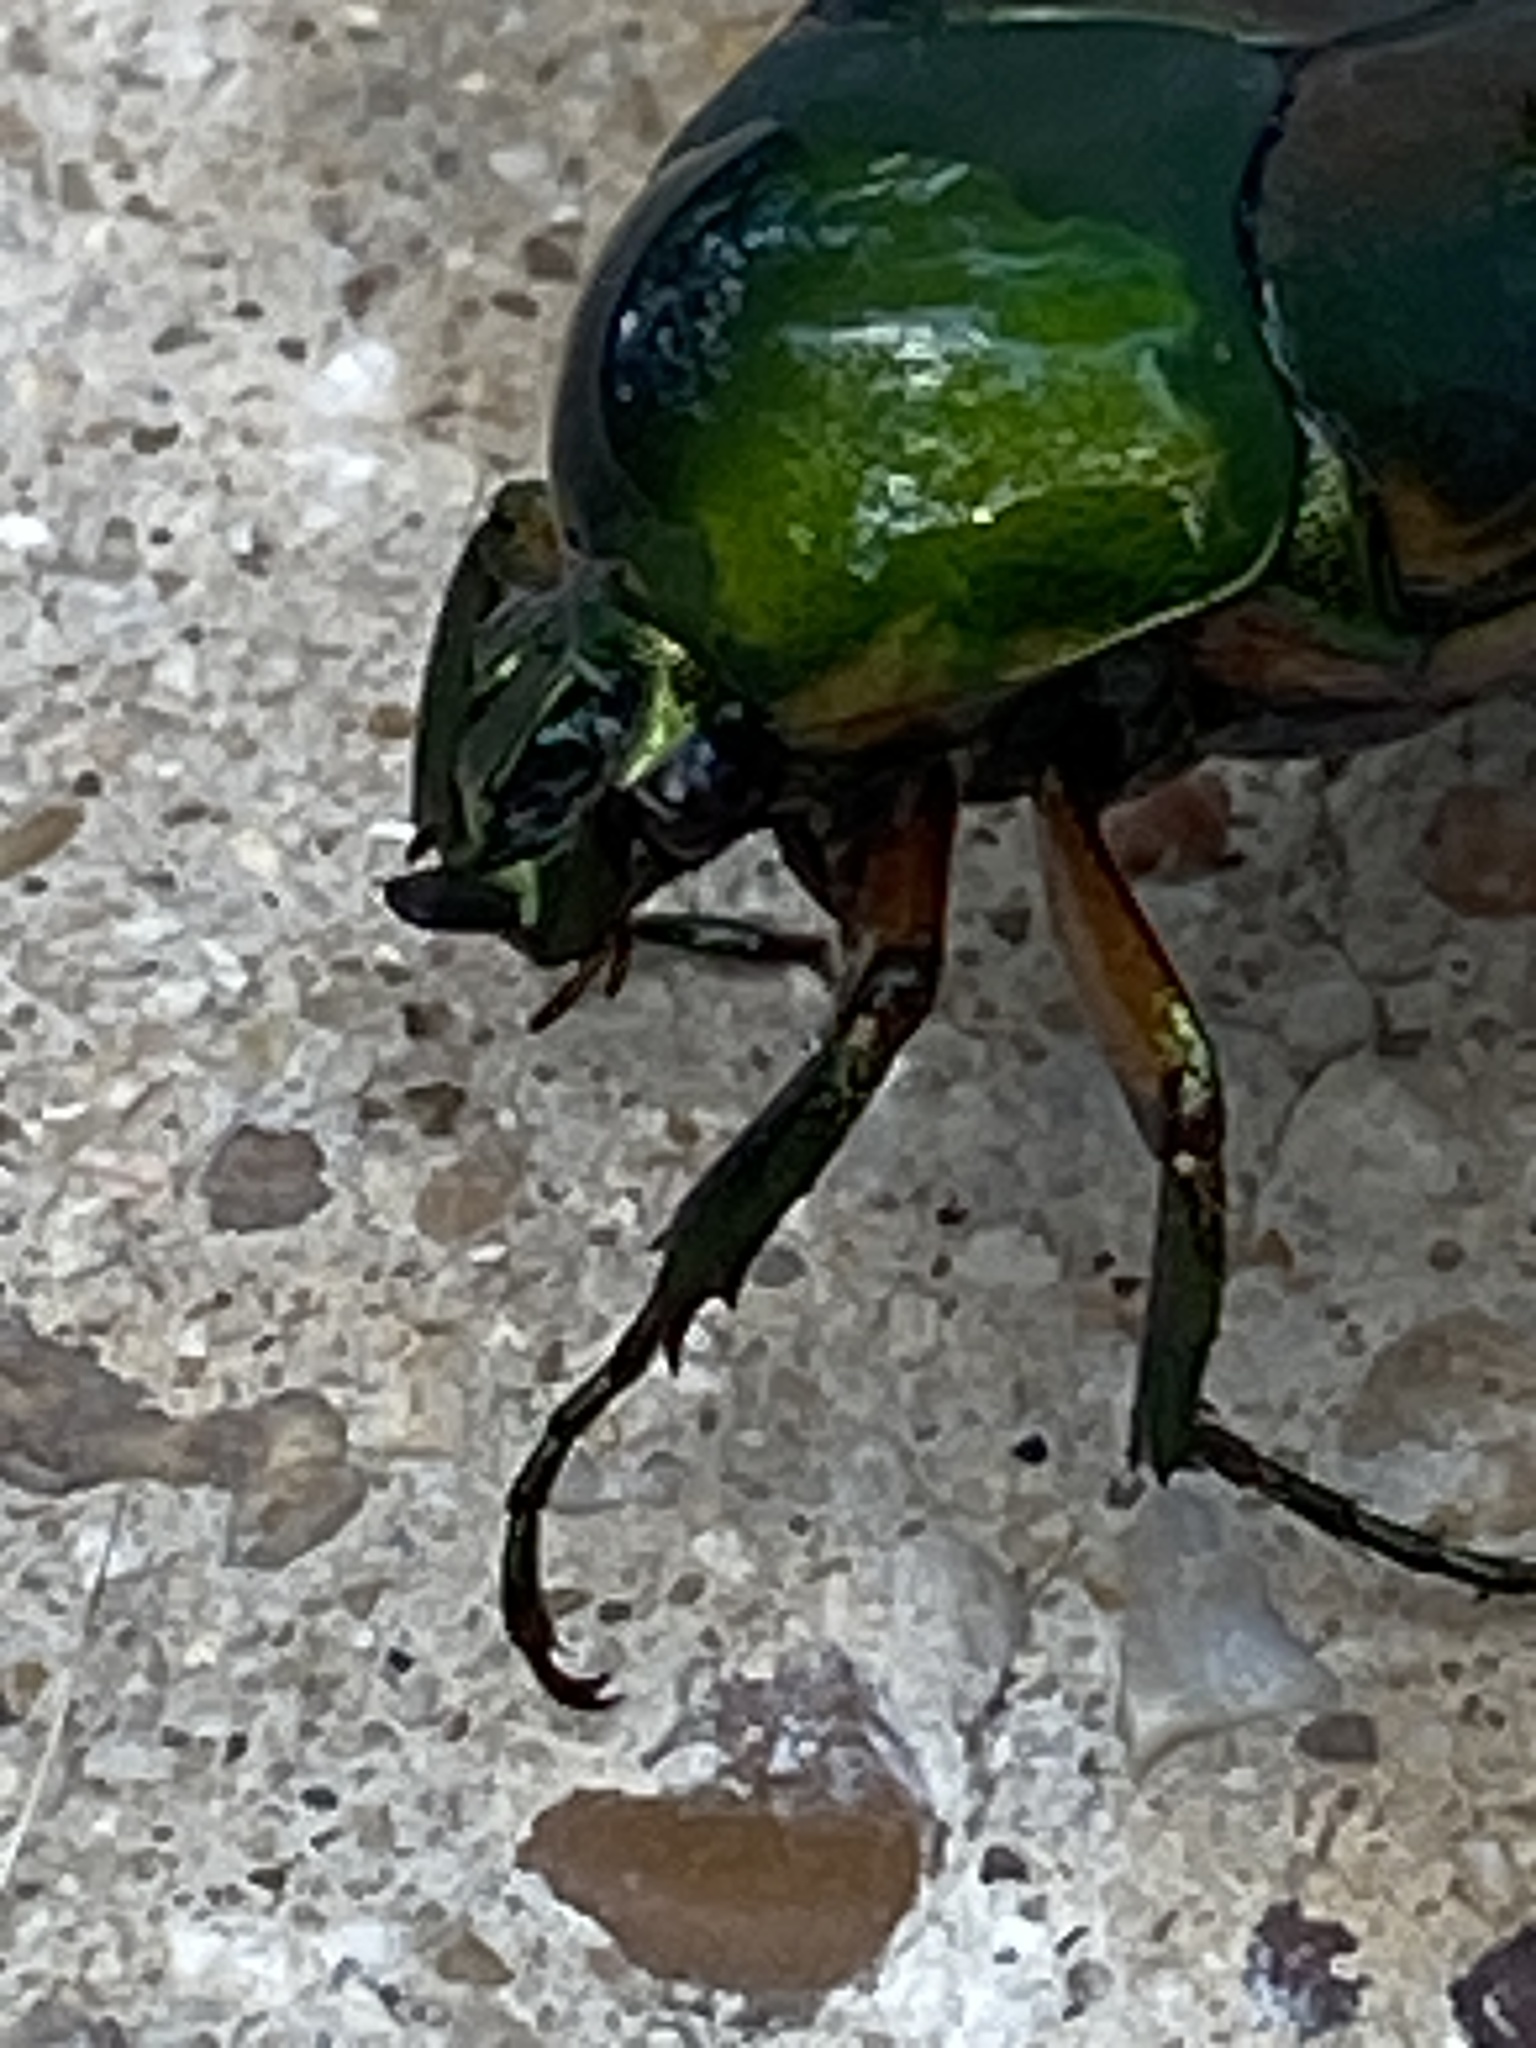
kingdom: Animalia
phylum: Arthropoda
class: Insecta
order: Coleoptera
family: Scarabaeidae
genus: Cotinis
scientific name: Cotinis nitida
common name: Common green june beetle
